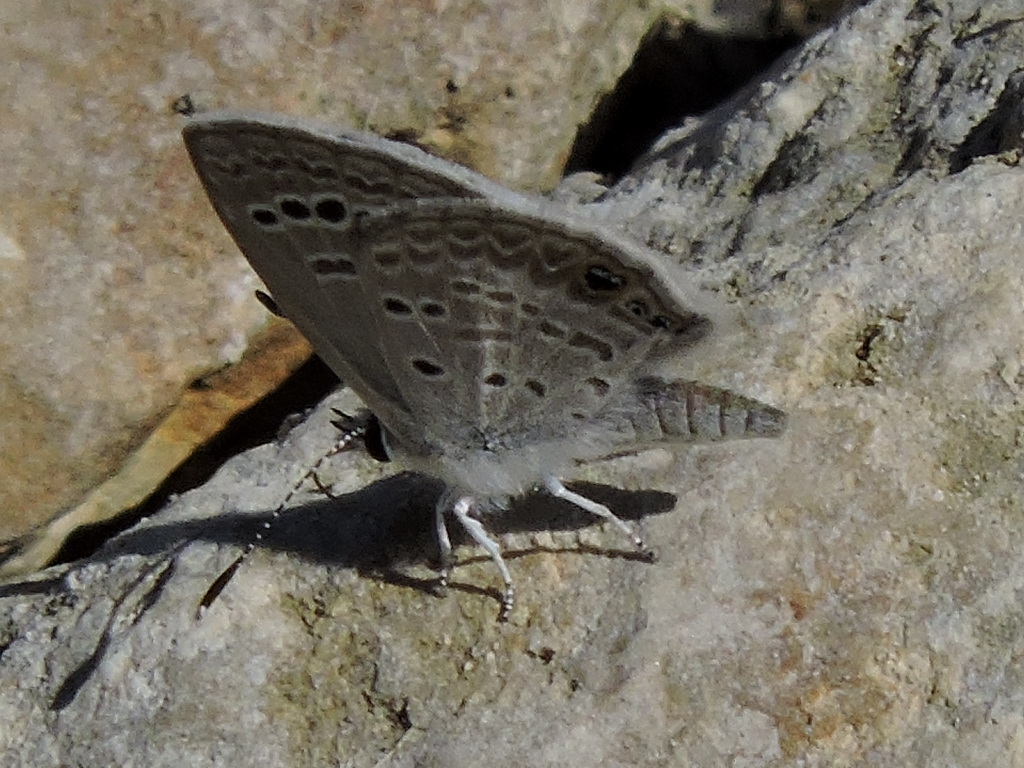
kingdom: Animalia
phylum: Arthropoda
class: Insecta
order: Lepidoptera
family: Lycaenidae
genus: Echinargus
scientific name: Echinargus isola
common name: Reakirt's blue
